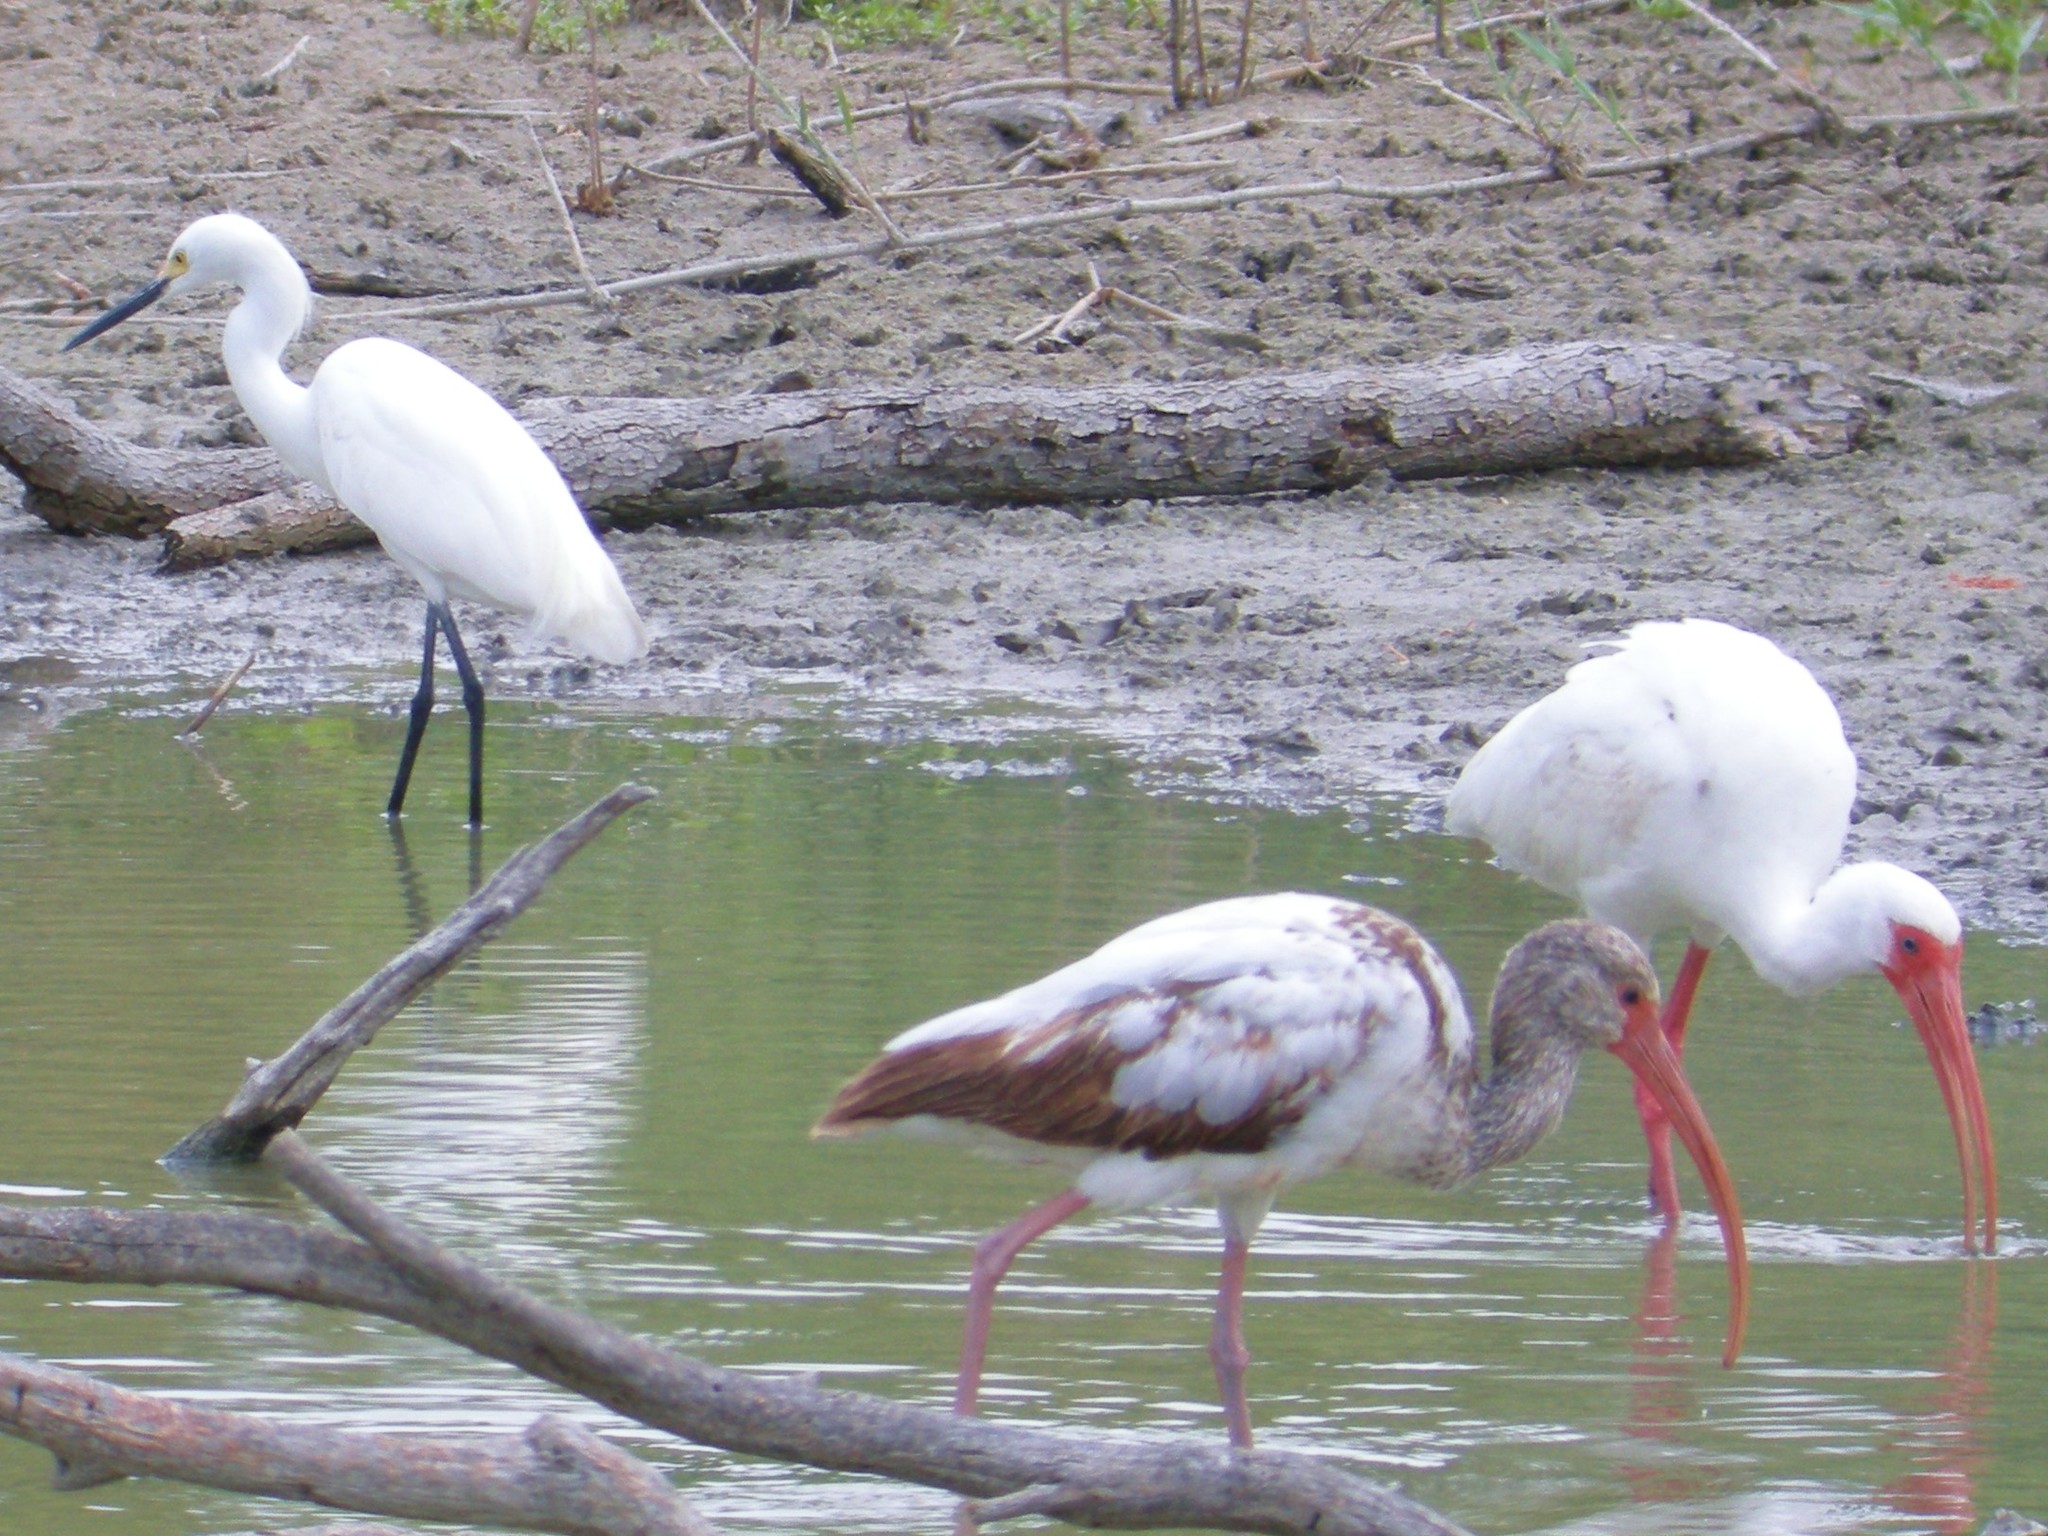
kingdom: Animalia
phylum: Chordata
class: Aves
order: Pelecaniformes
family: Threskiornithidae
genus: Eudocimus
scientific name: Eudocimus albus
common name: White ibis
